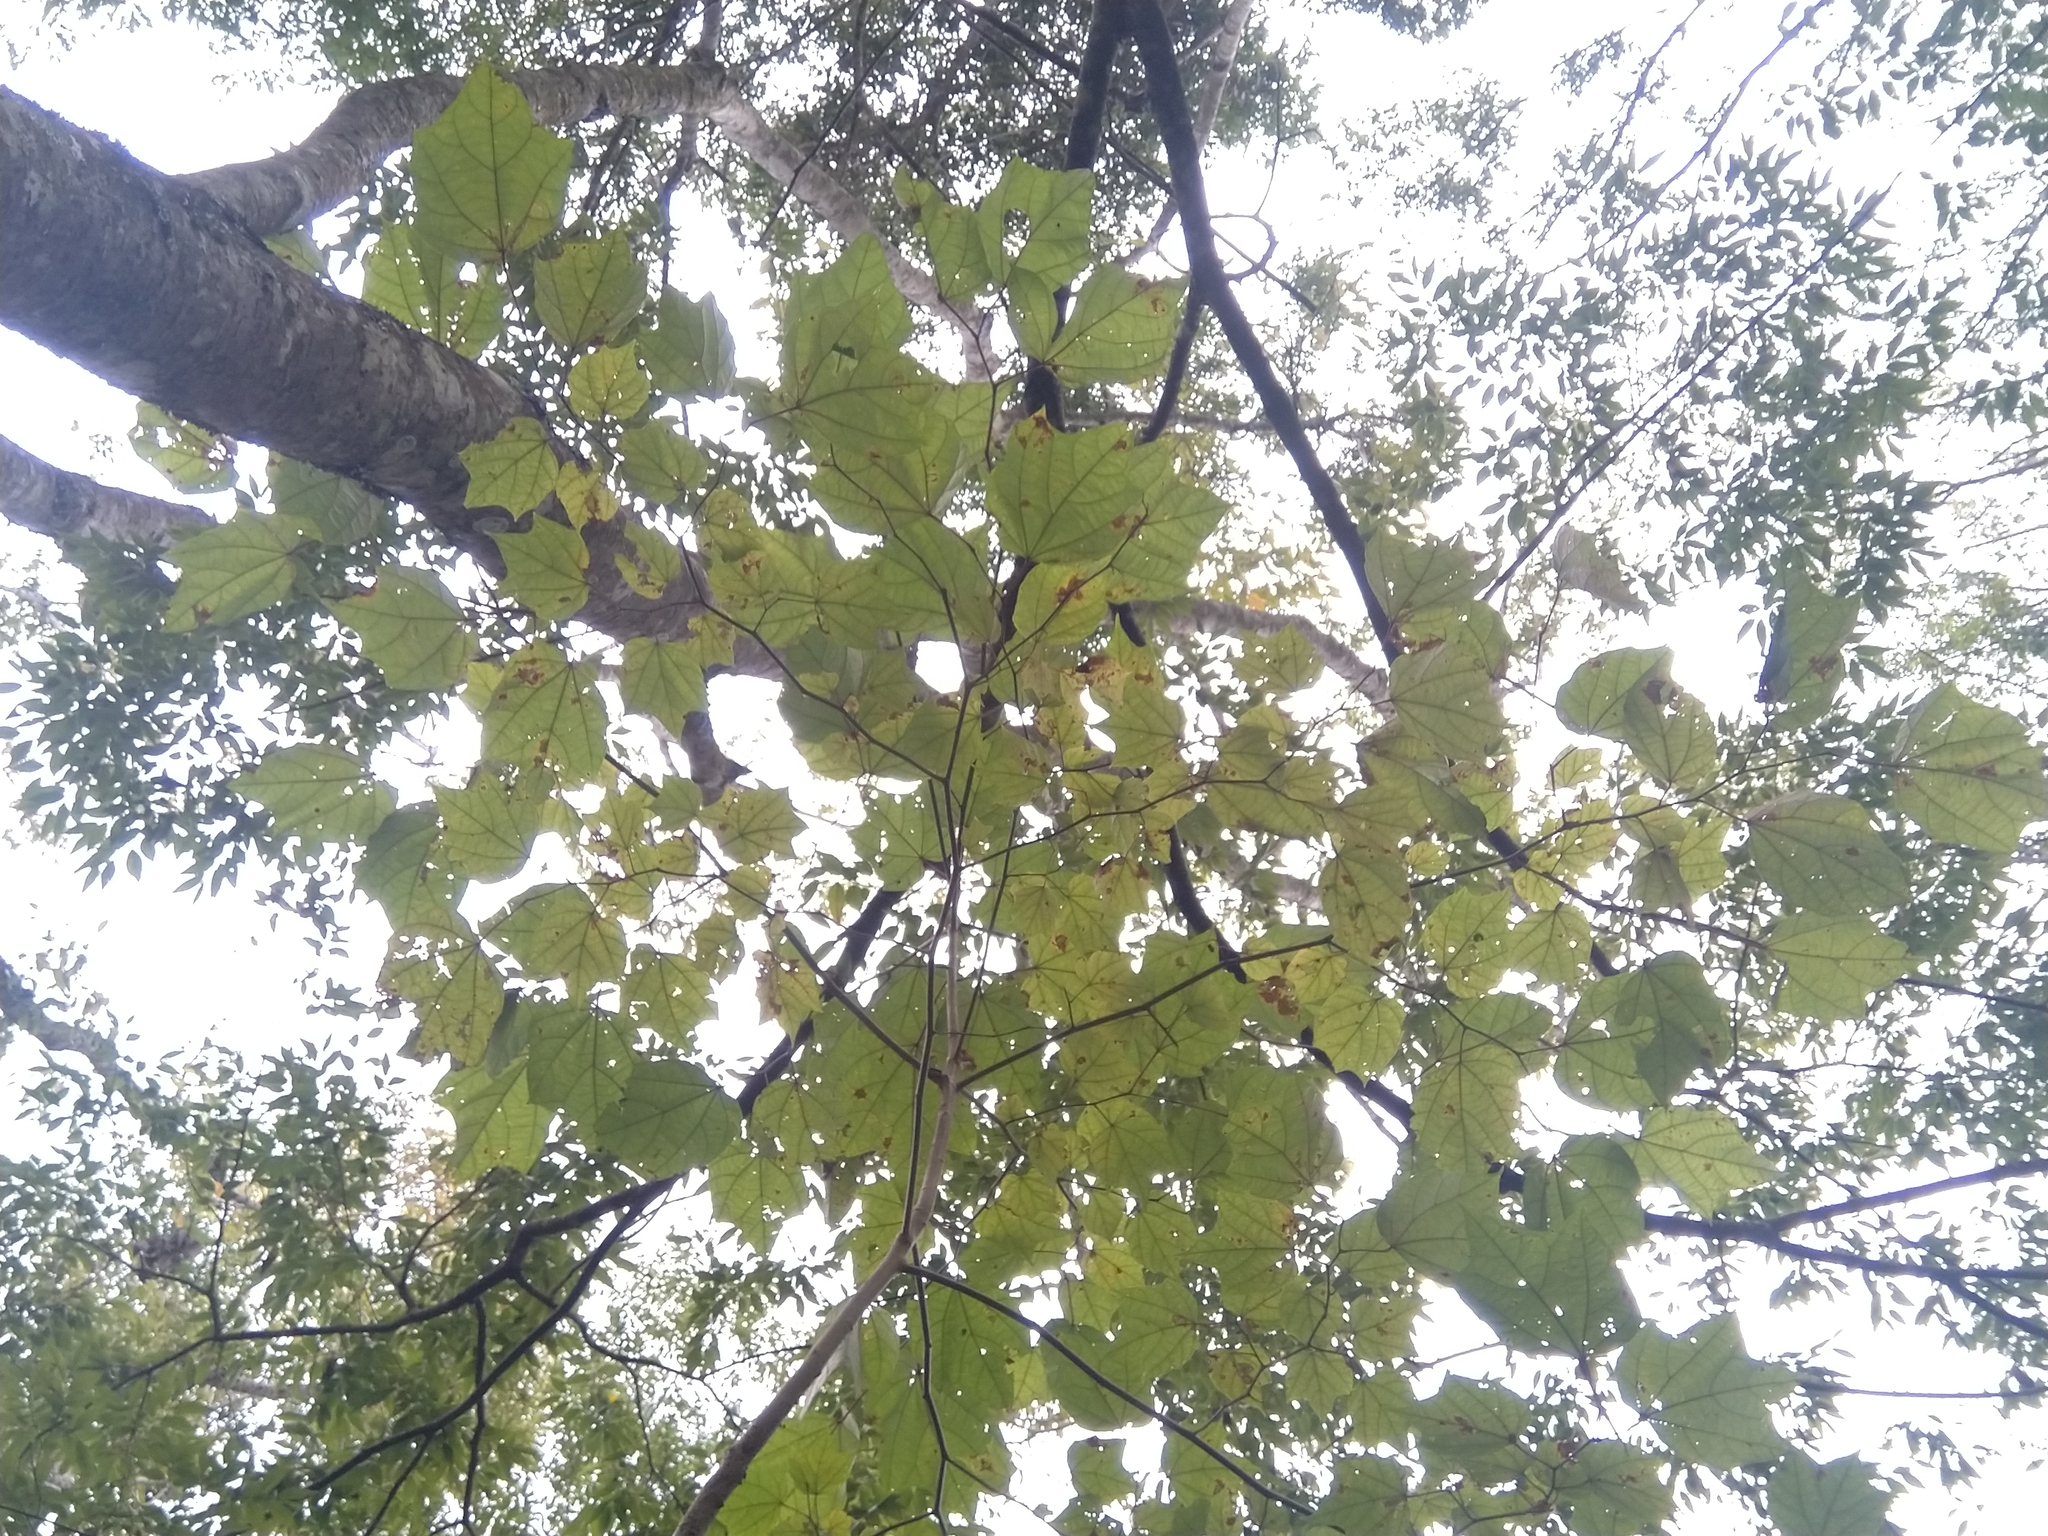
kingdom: Plantae
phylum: Tracheophyta
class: Magnoliopsida
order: Cornales
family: Cornaceae
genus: Alangium
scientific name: Alangium chinense
